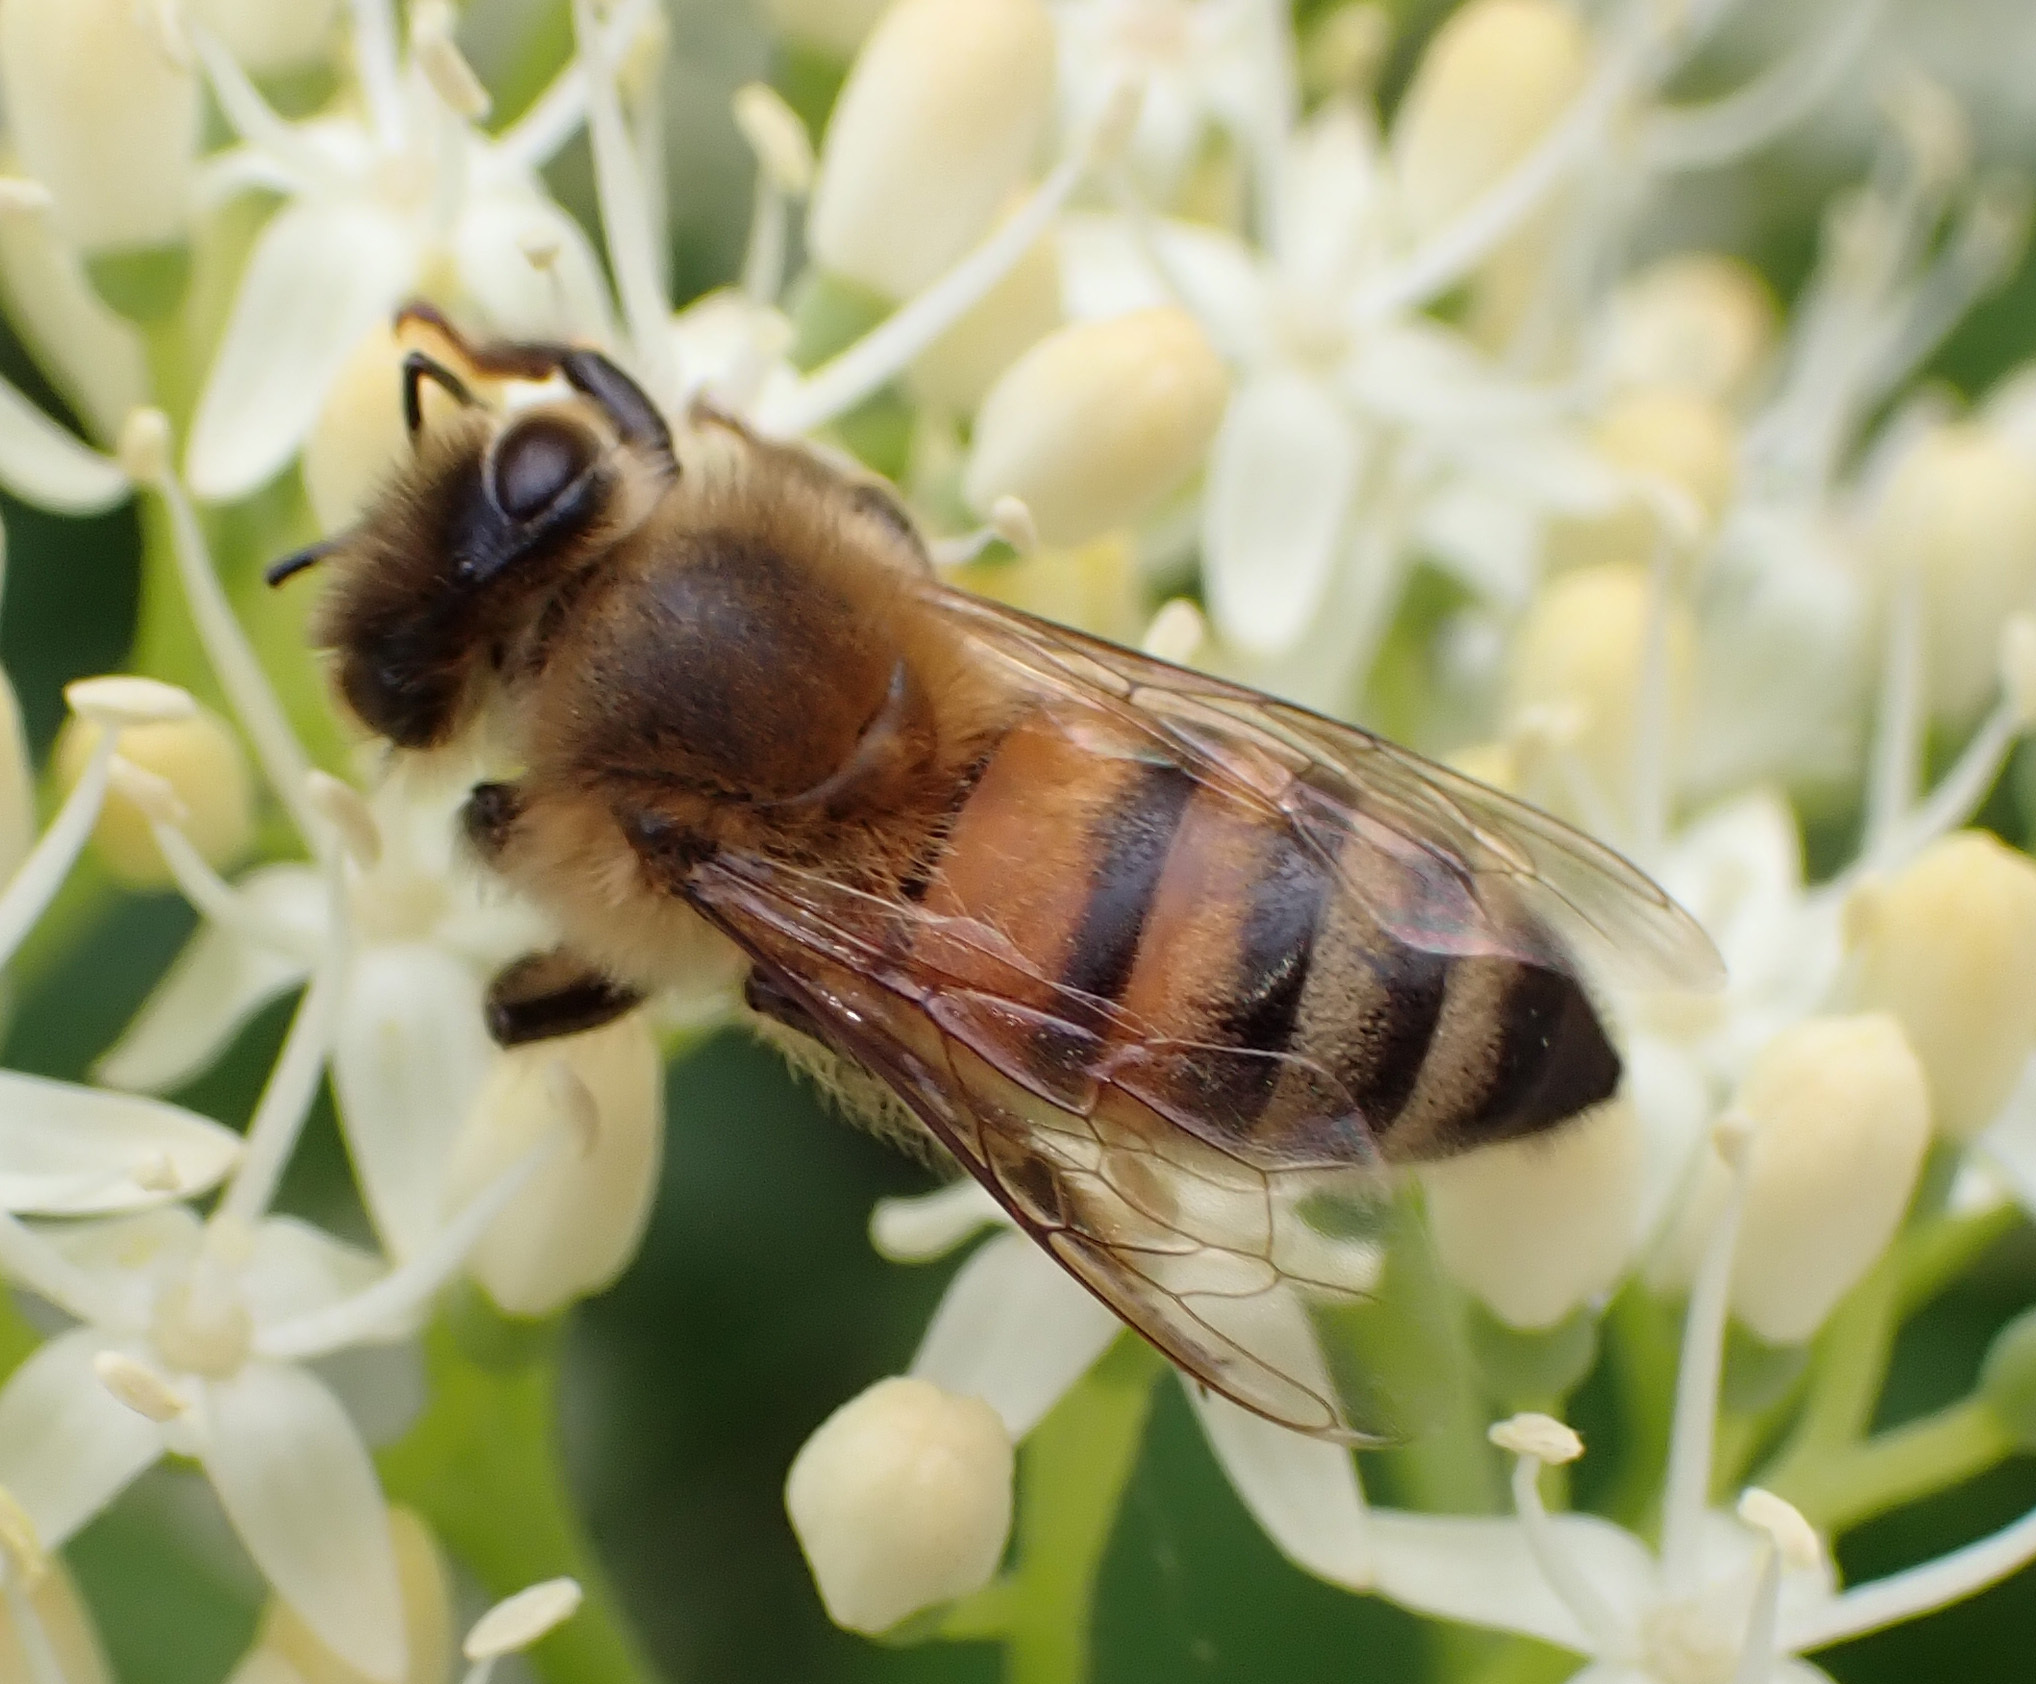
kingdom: Animalia
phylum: Arthropoda
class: Insecta
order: Hymenoptera
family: Apidae
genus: Apis
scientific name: Apis mellifera
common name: Honey bee
